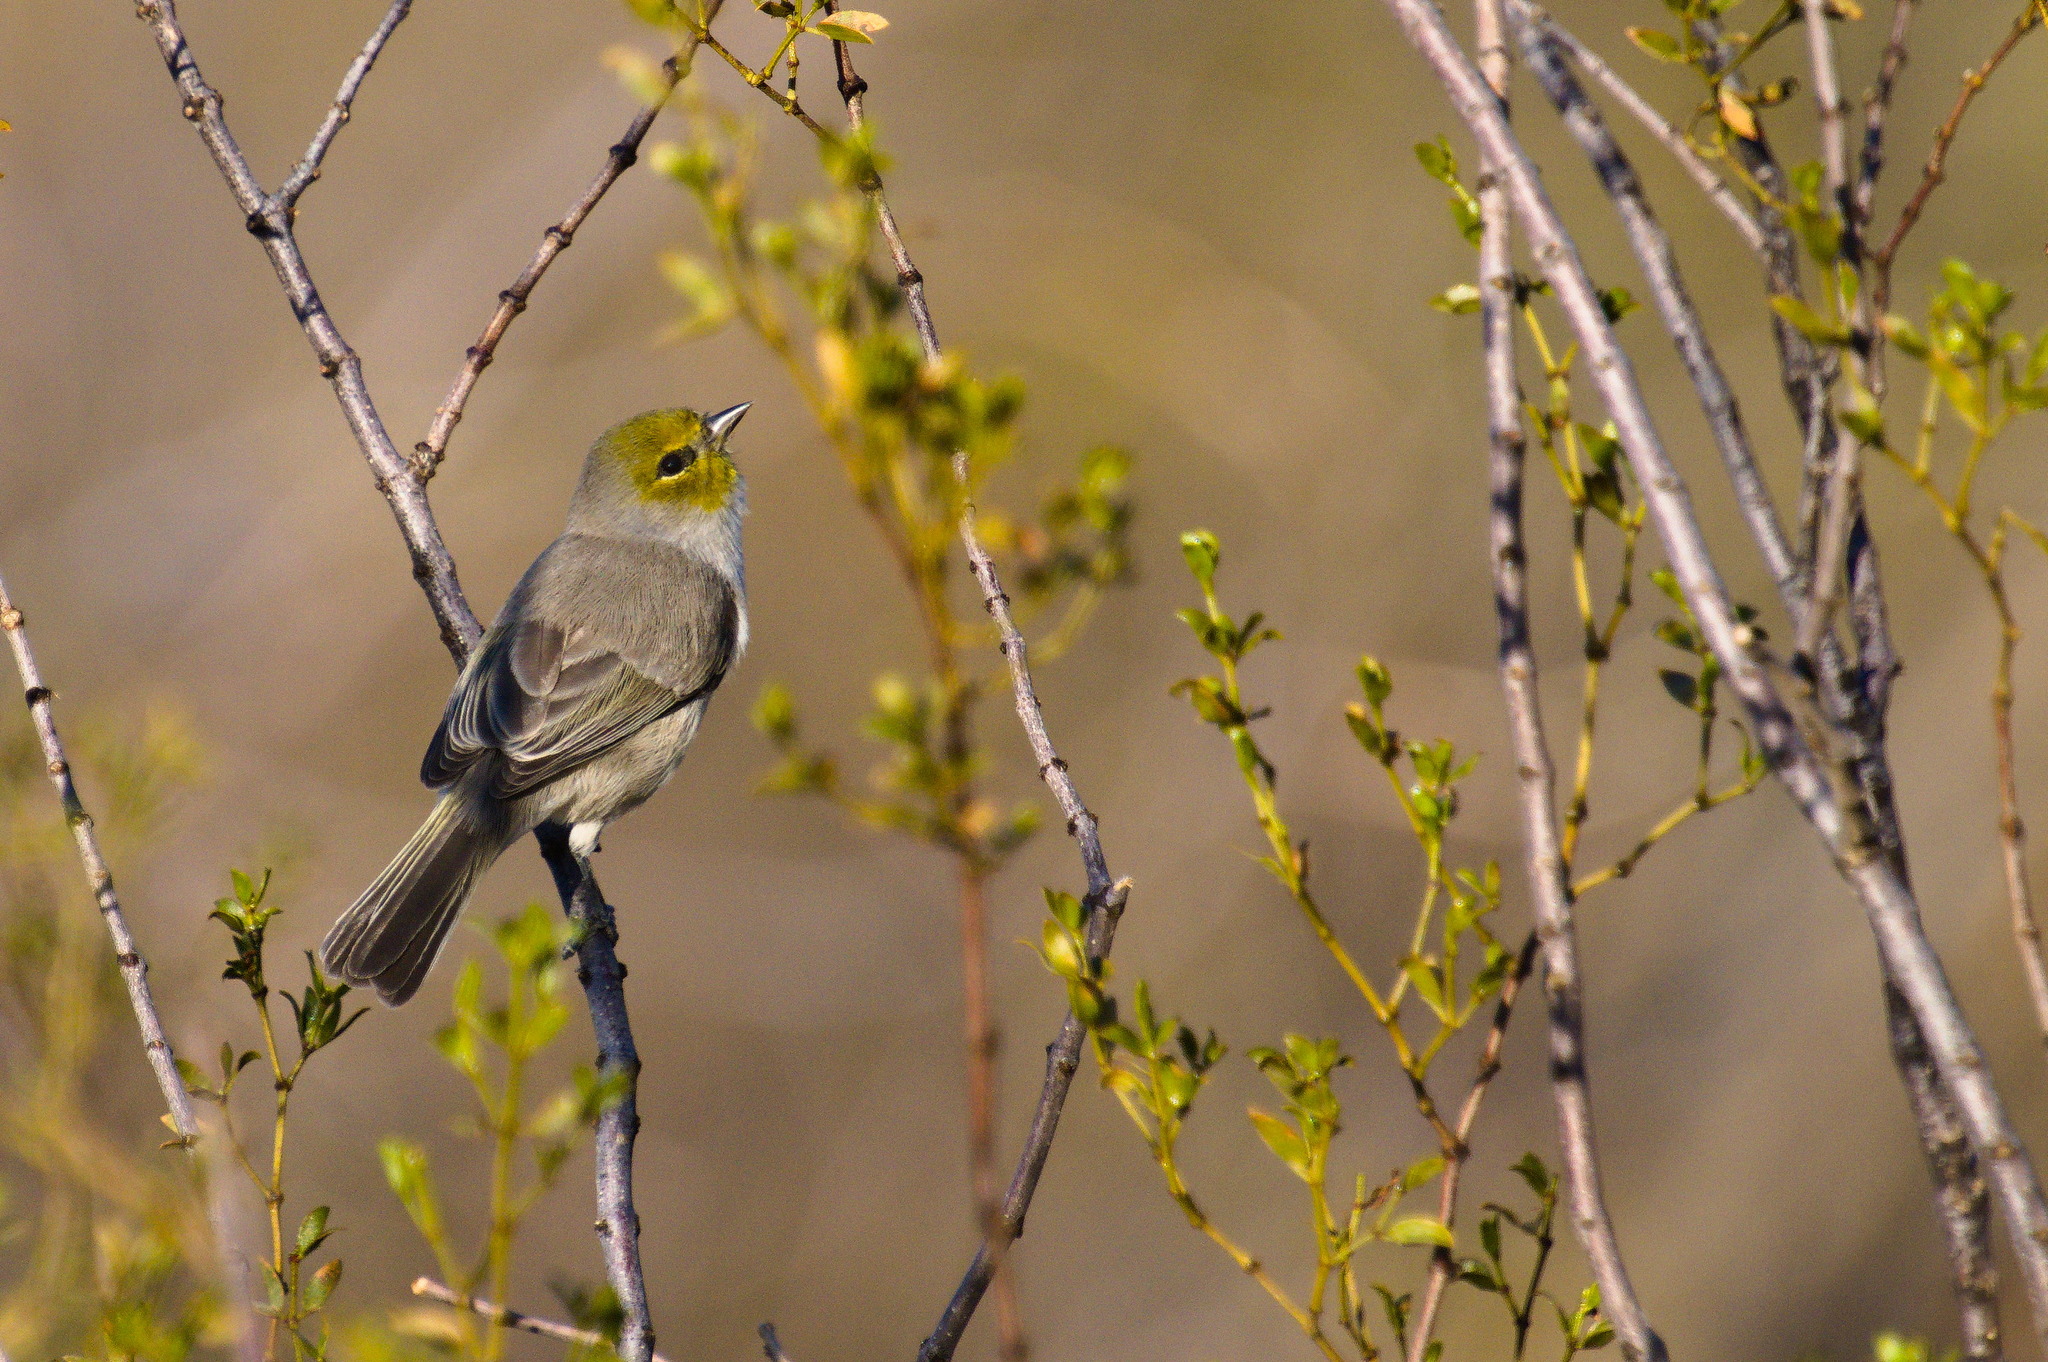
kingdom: Animalia
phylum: Chordata
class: Aves
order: Passeriformes
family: Remizidae
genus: Auriparus
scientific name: Auriparus flaviceps
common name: Verdin
